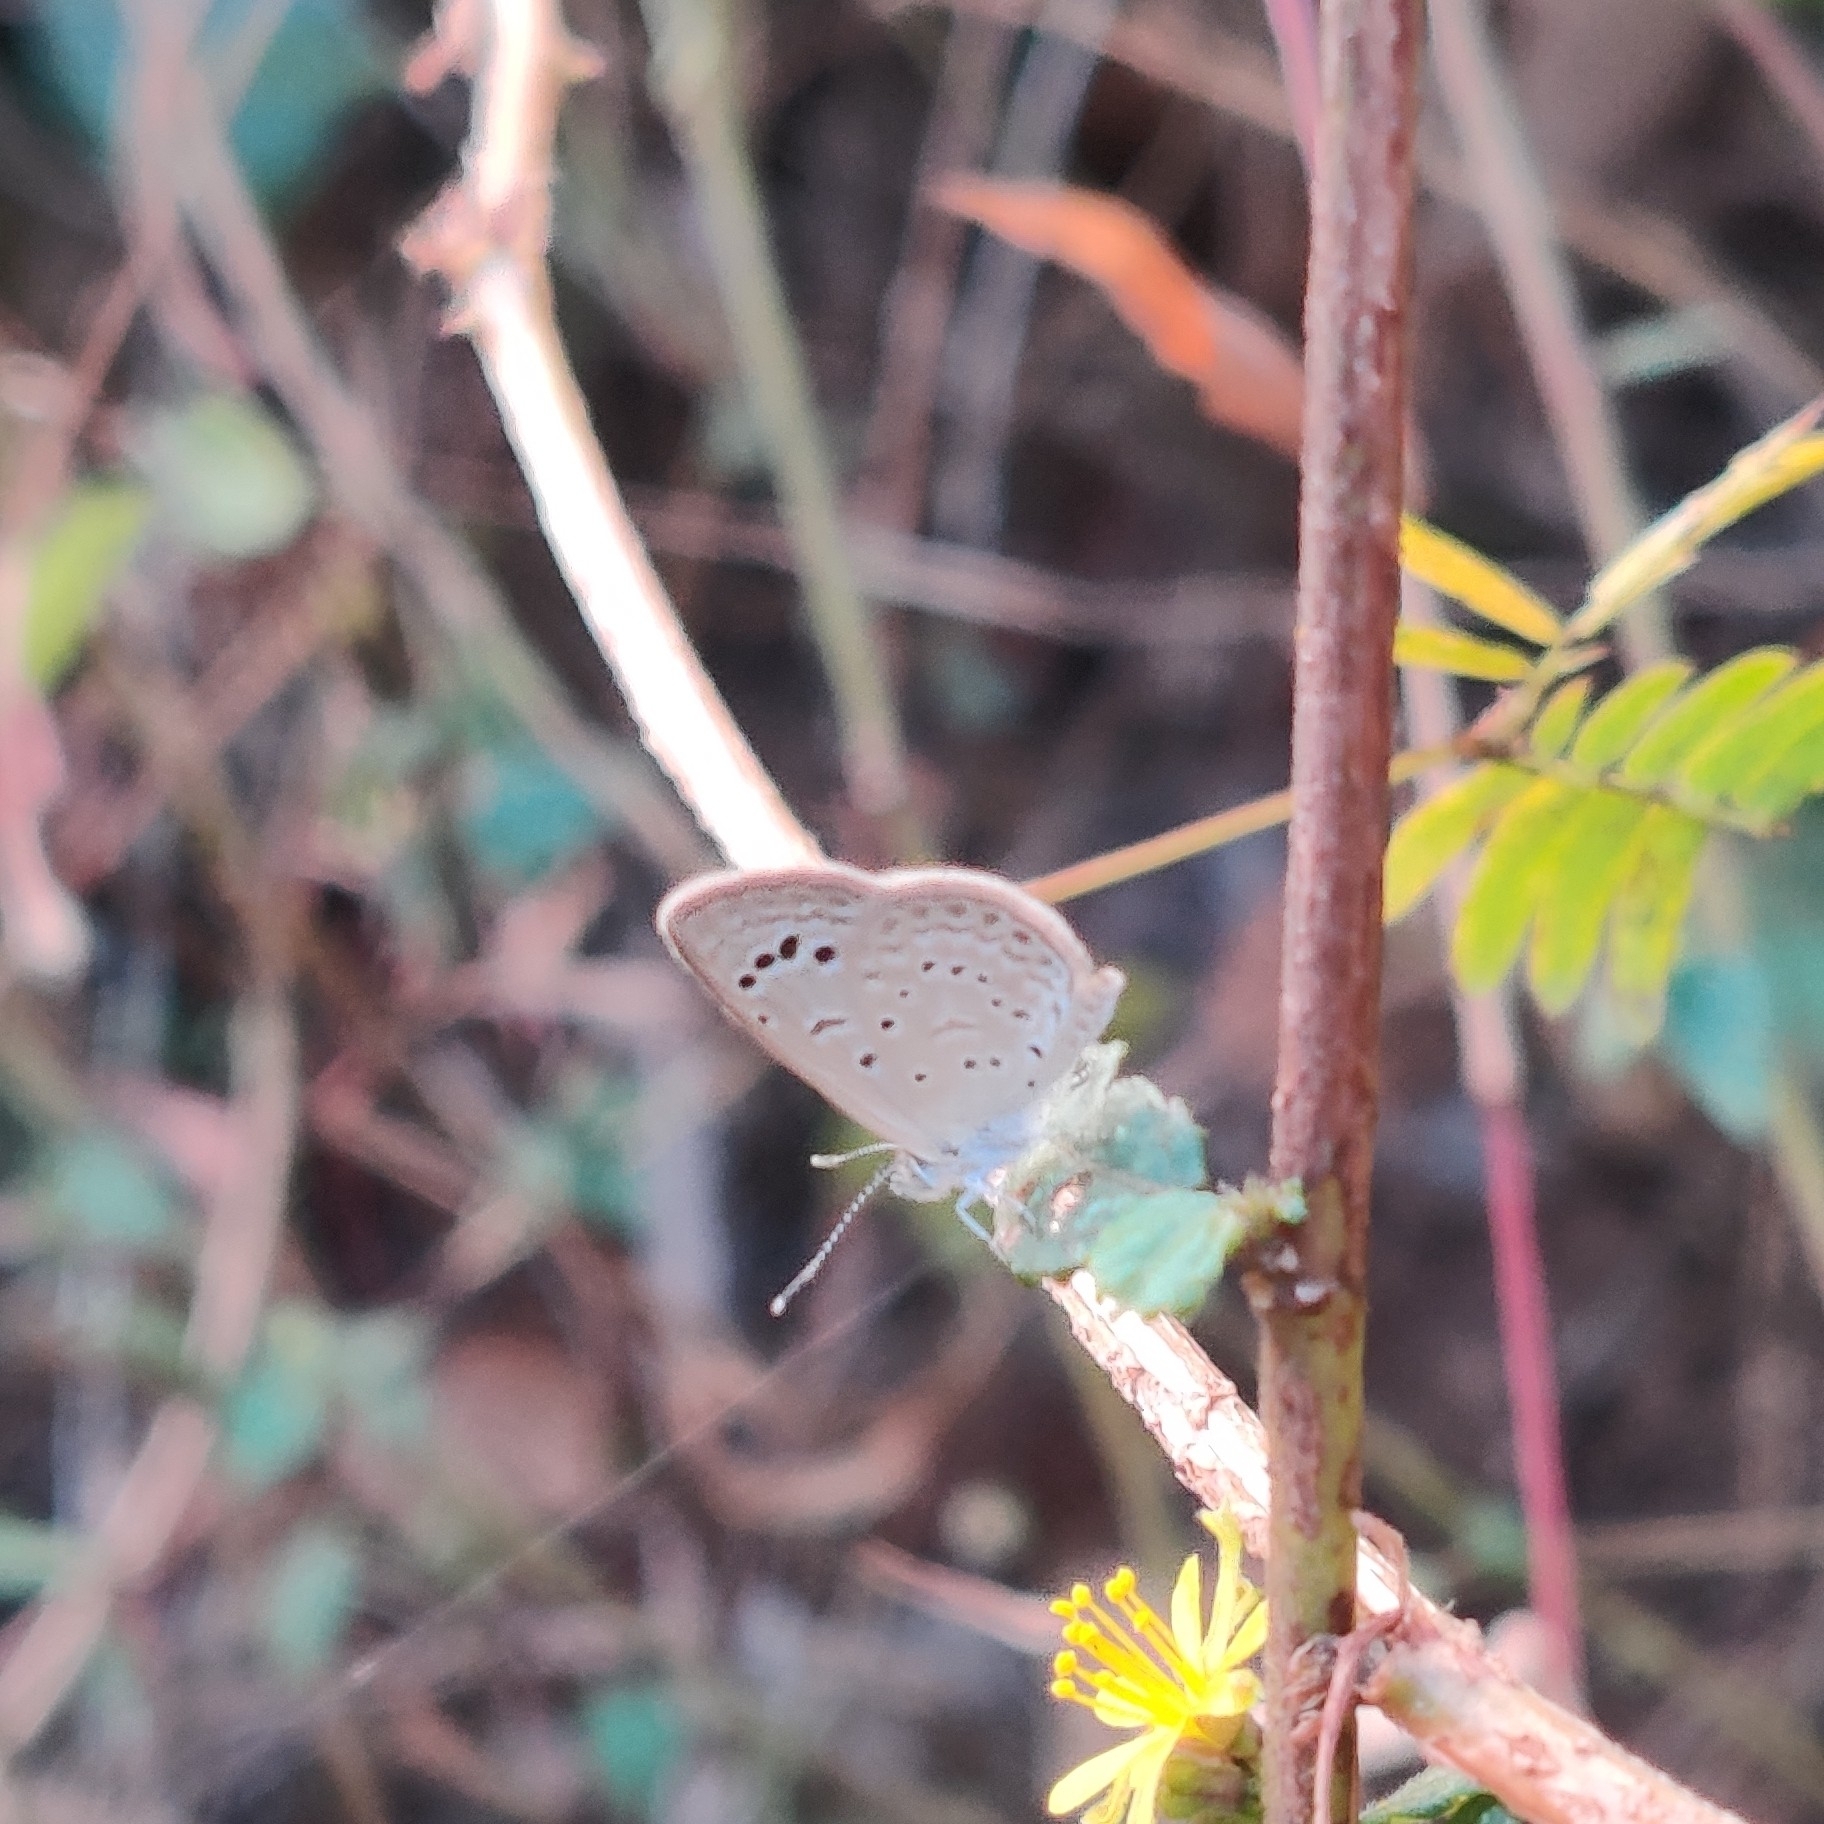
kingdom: Animalia
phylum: Arthropoda
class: Insecta
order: Lepidoptera
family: Lycaenidae
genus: Zizeeria
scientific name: Zizeeria karsandra
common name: Dark grass blue
